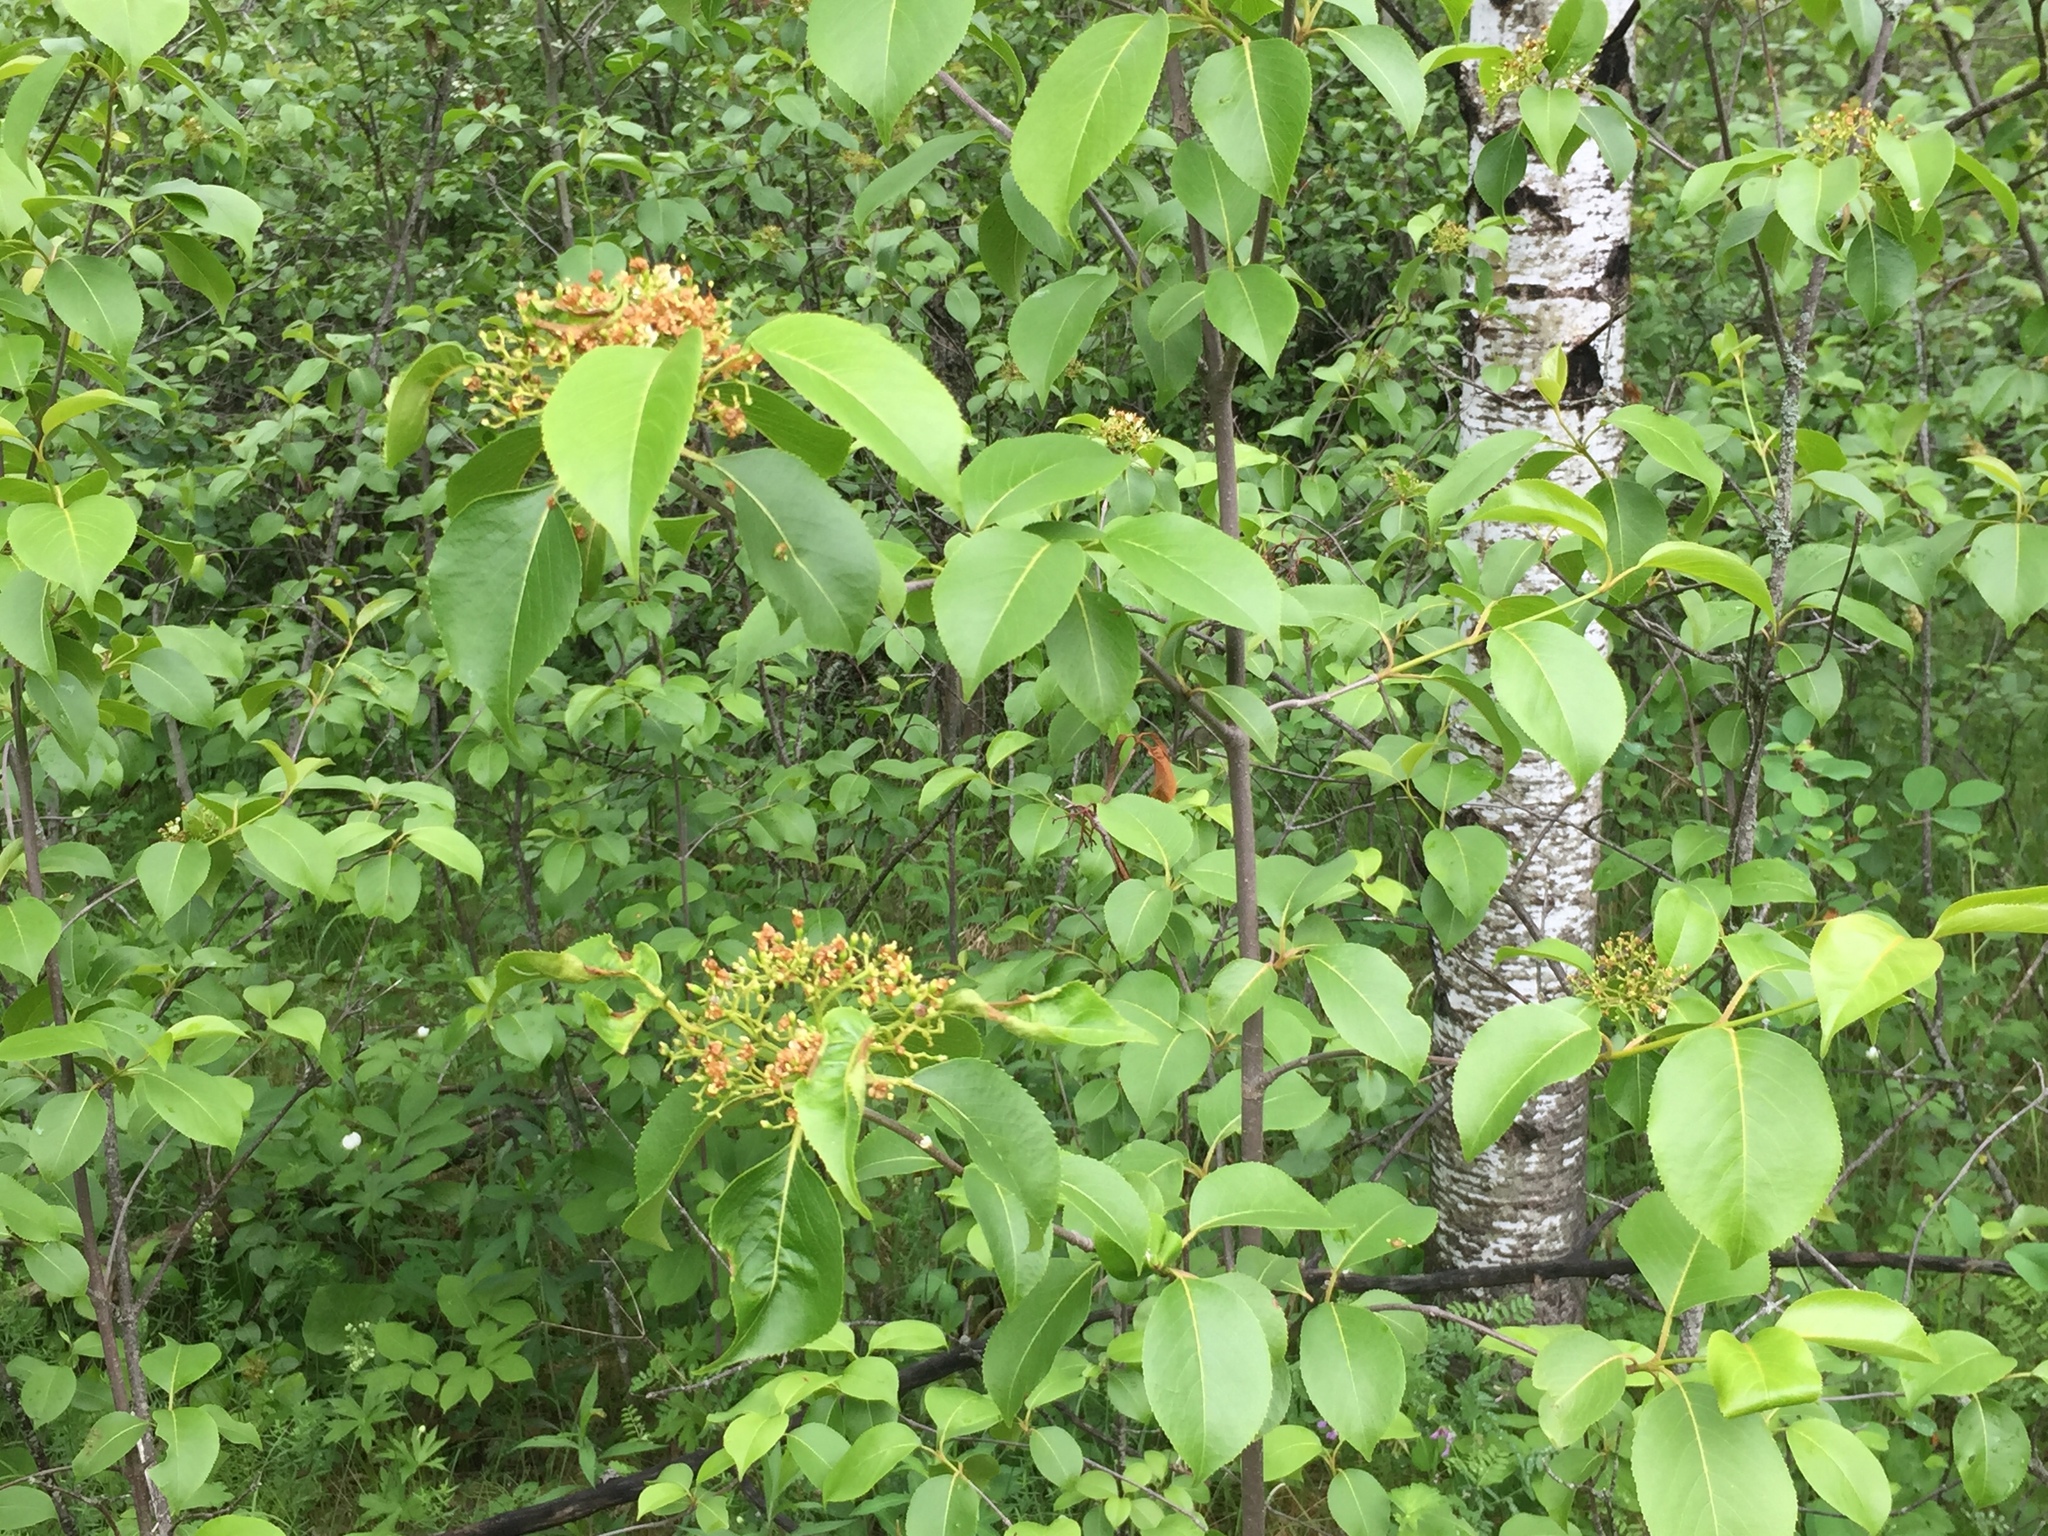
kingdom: Plantae
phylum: Tracheophyta
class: Magnoliopsida
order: Dipsacales
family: Viburnaceae
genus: Viburnum
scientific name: Viburnum lentago
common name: Black haw
